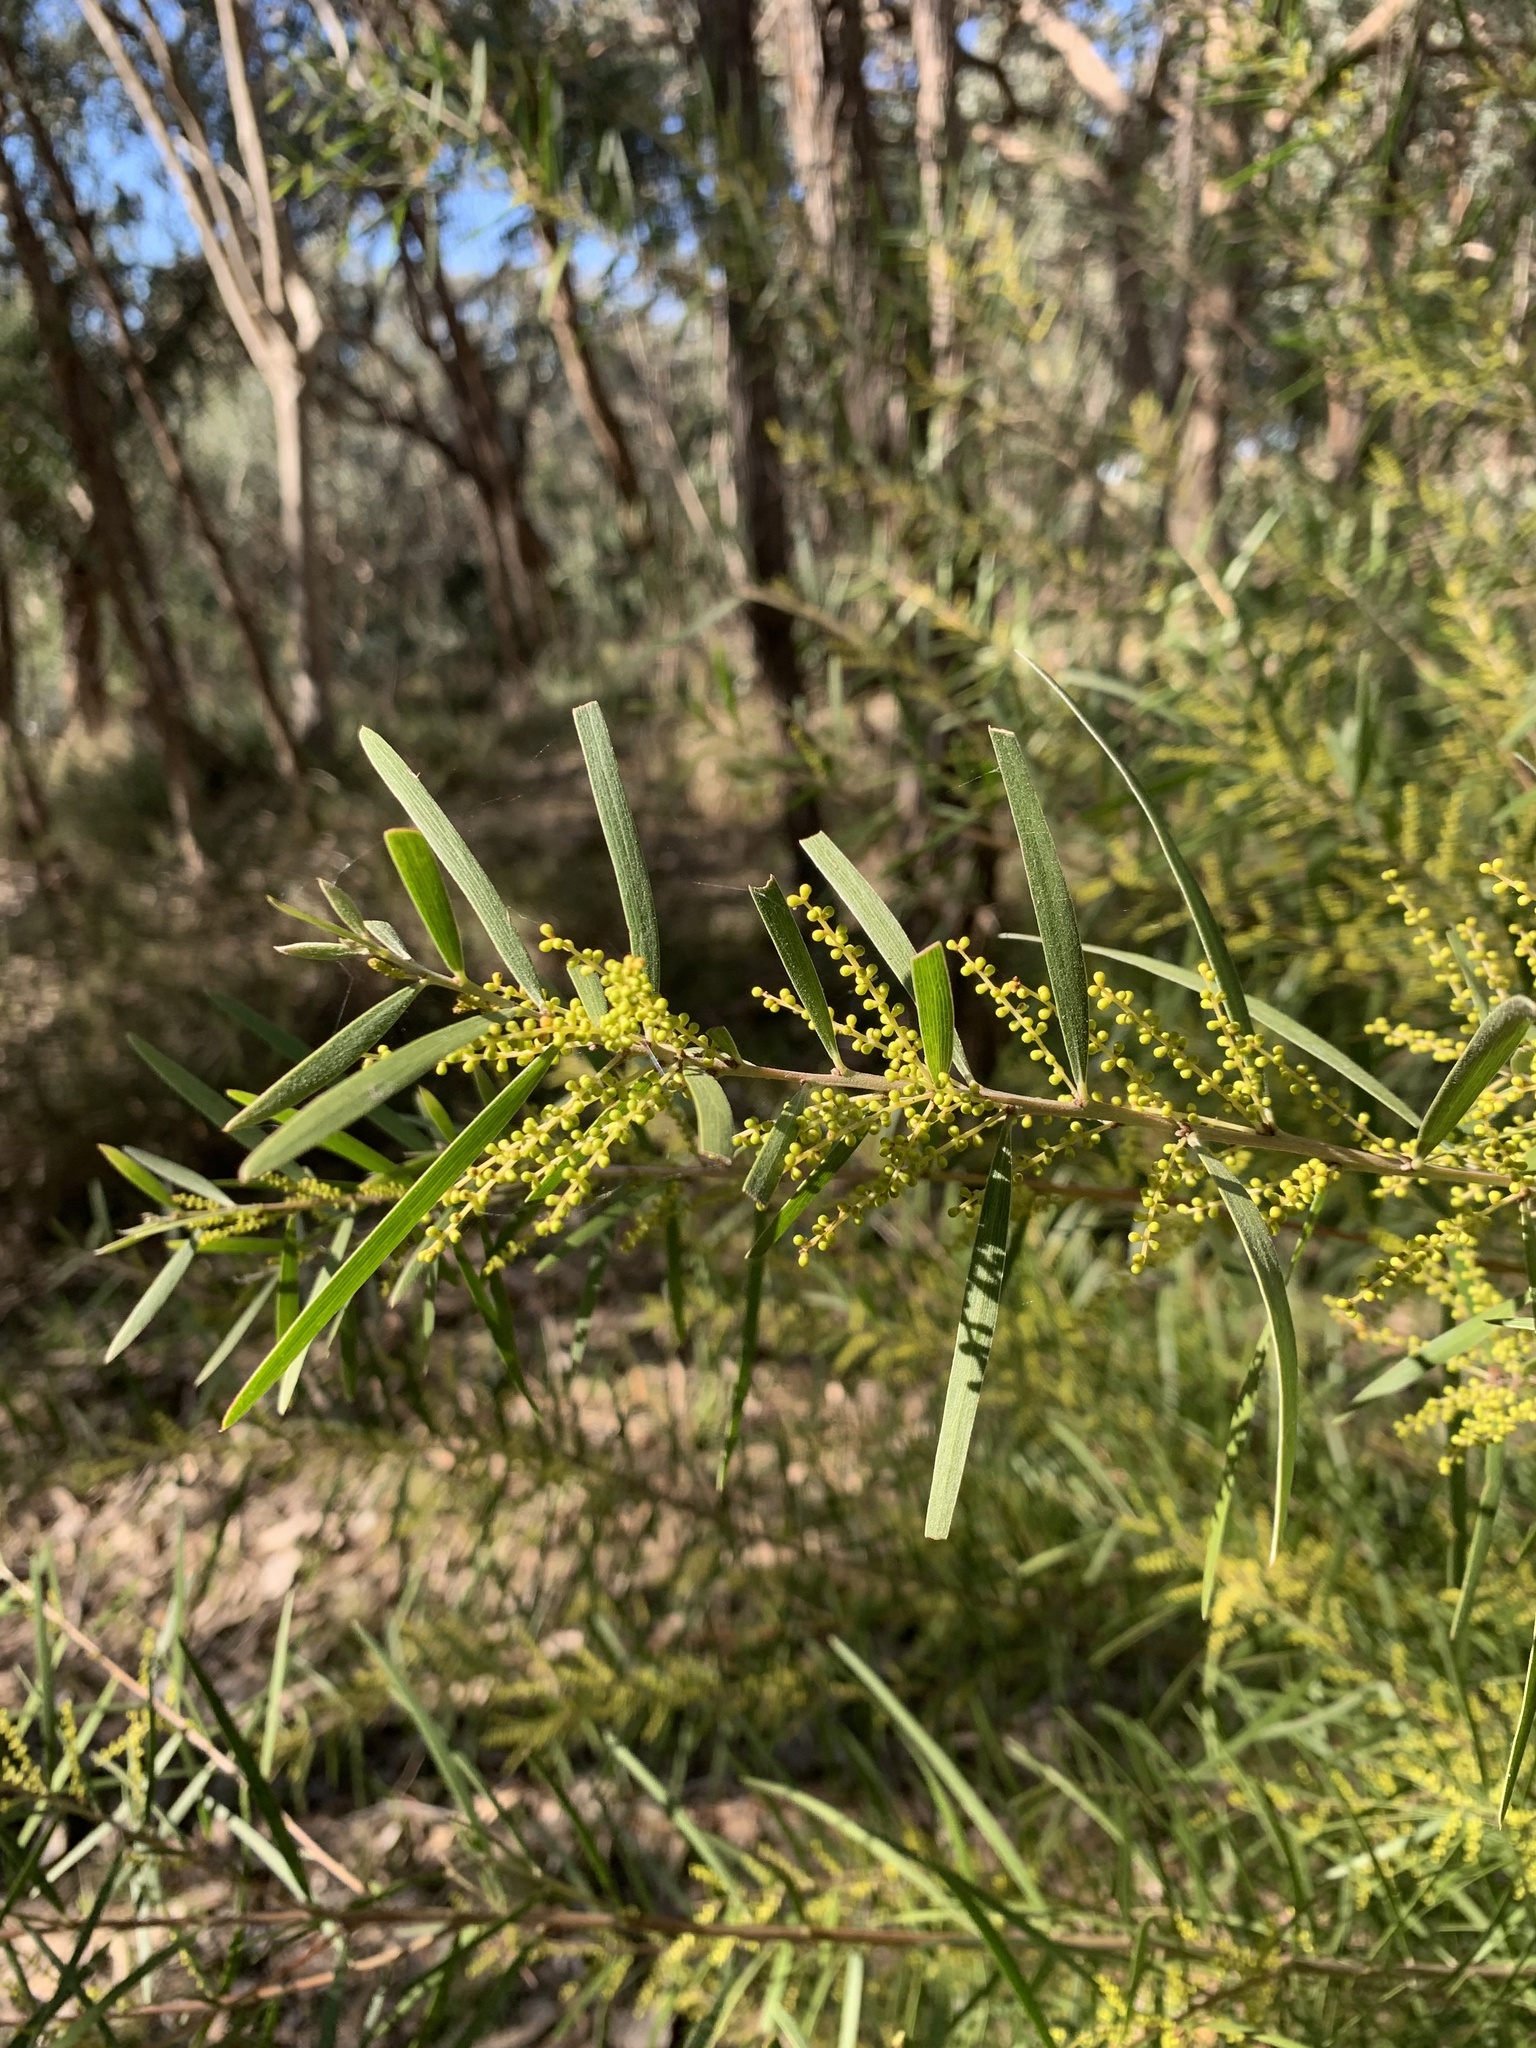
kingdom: Plantae
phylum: Tracheophyta
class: Magnoliopsida
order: Fabales
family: Fabaceae
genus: Acacia
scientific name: Acacia floribunda
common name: Gossamer wattle
